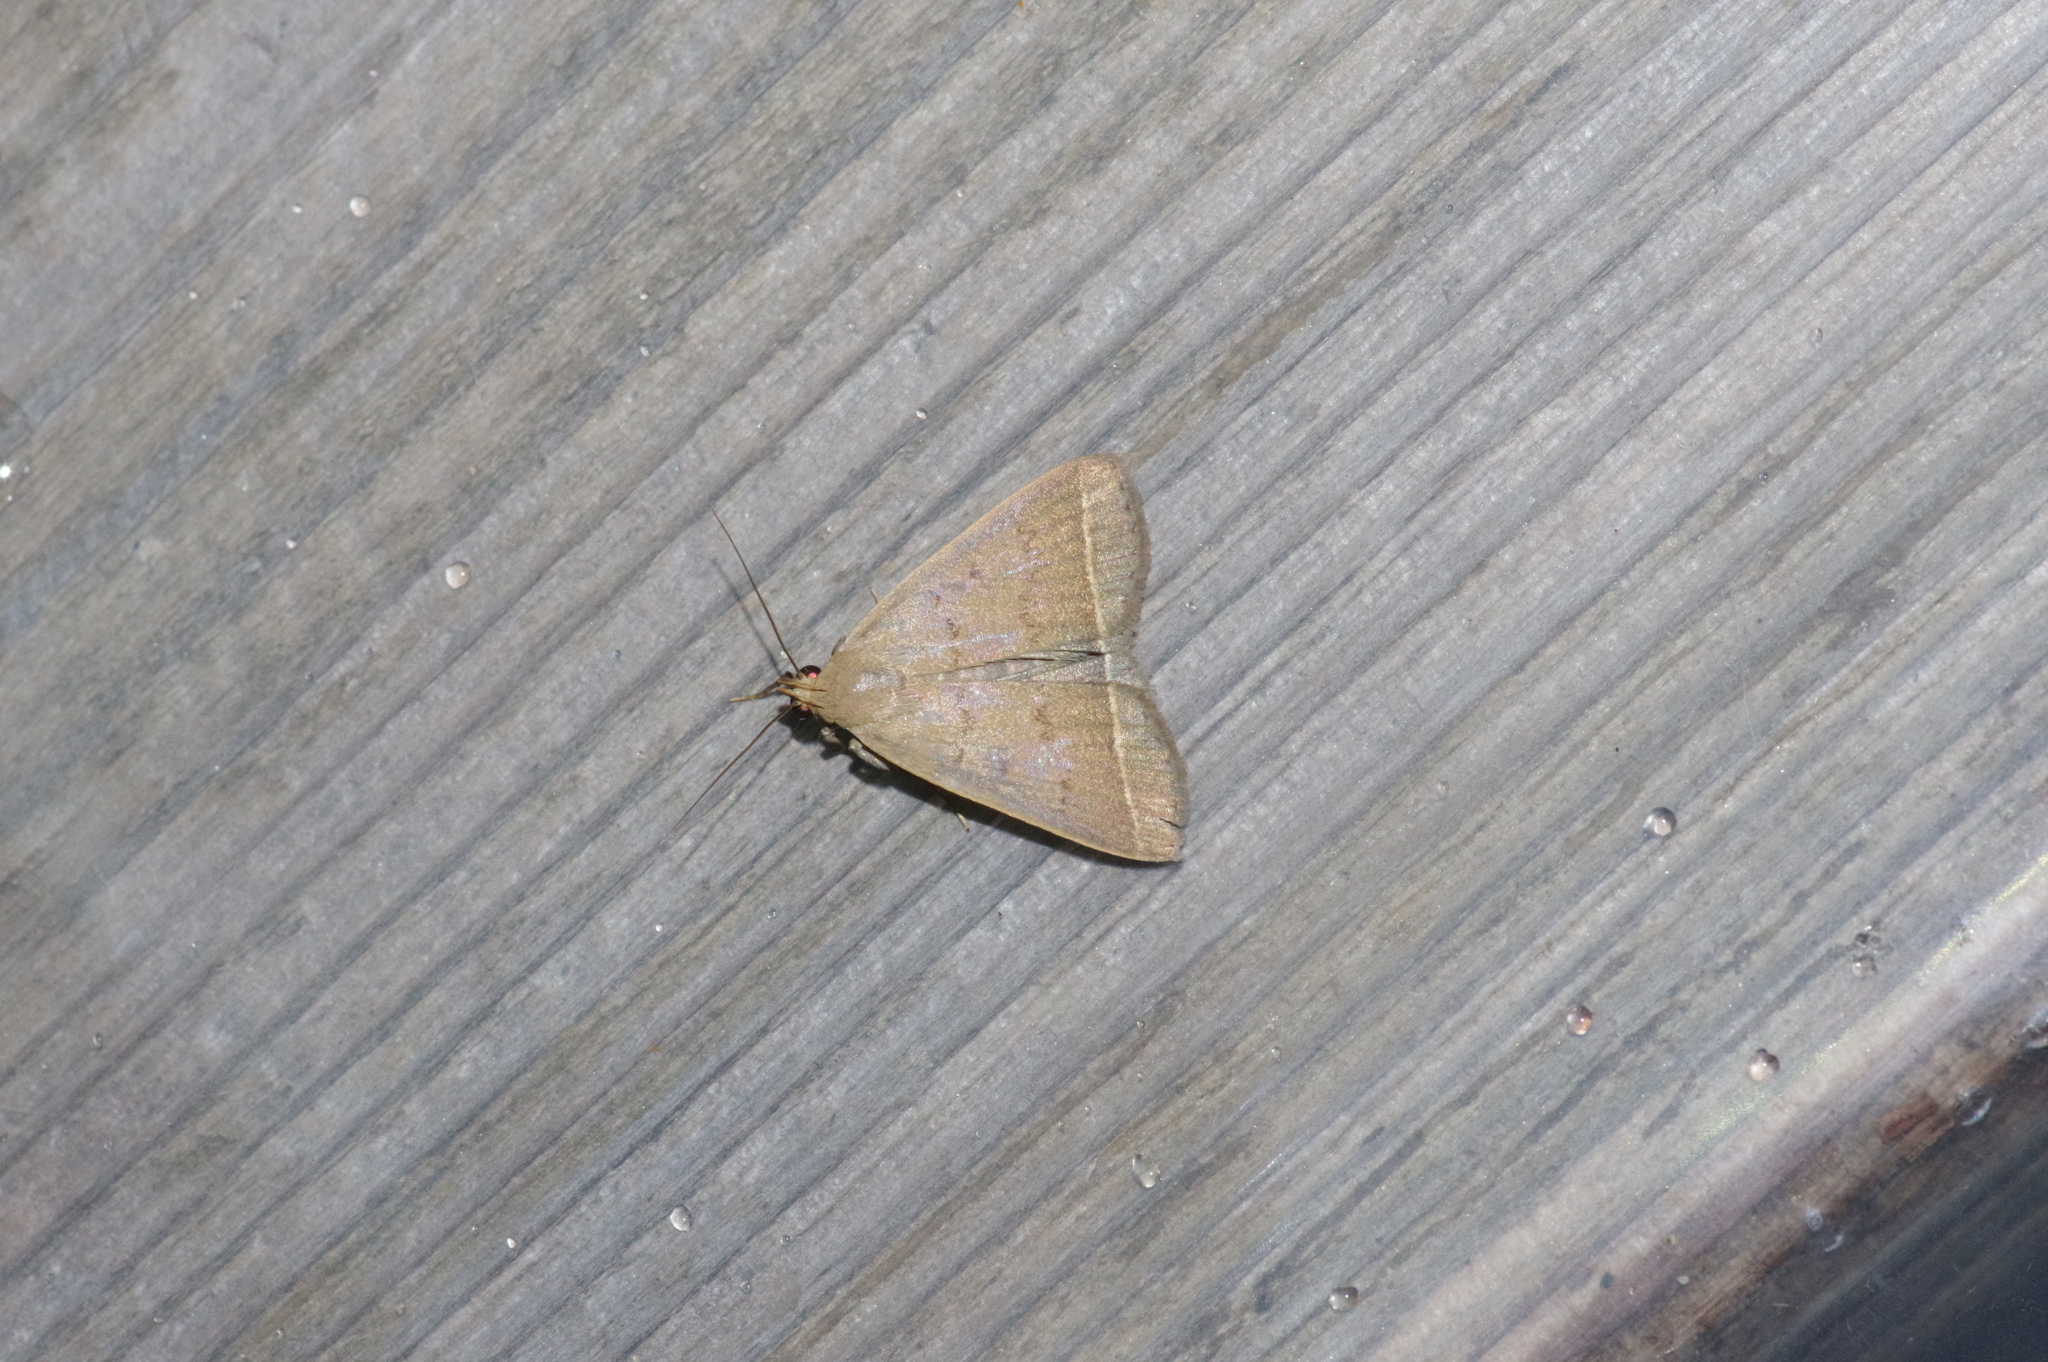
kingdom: Animalia
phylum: Arthropoda
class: Insecta
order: Lepidoptera
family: Erebidae
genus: Simplicia
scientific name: Simplicia xanthoma
